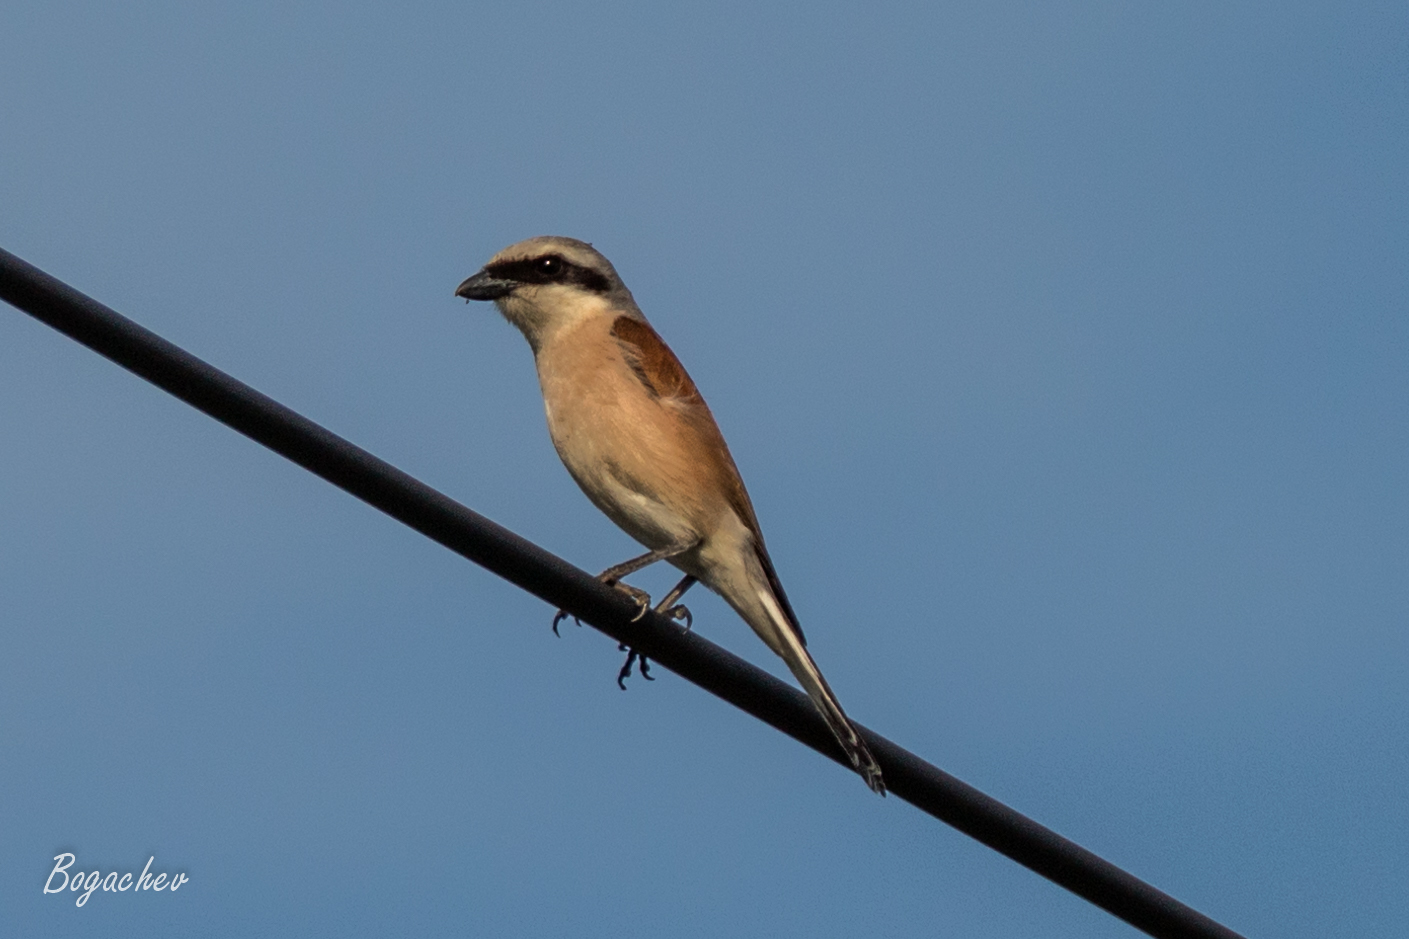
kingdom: Animalia
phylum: Chordata
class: Aves
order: Passeriformes
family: Laniidae
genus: Lanius
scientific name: Lanius collurio
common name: Red-backed shrike
